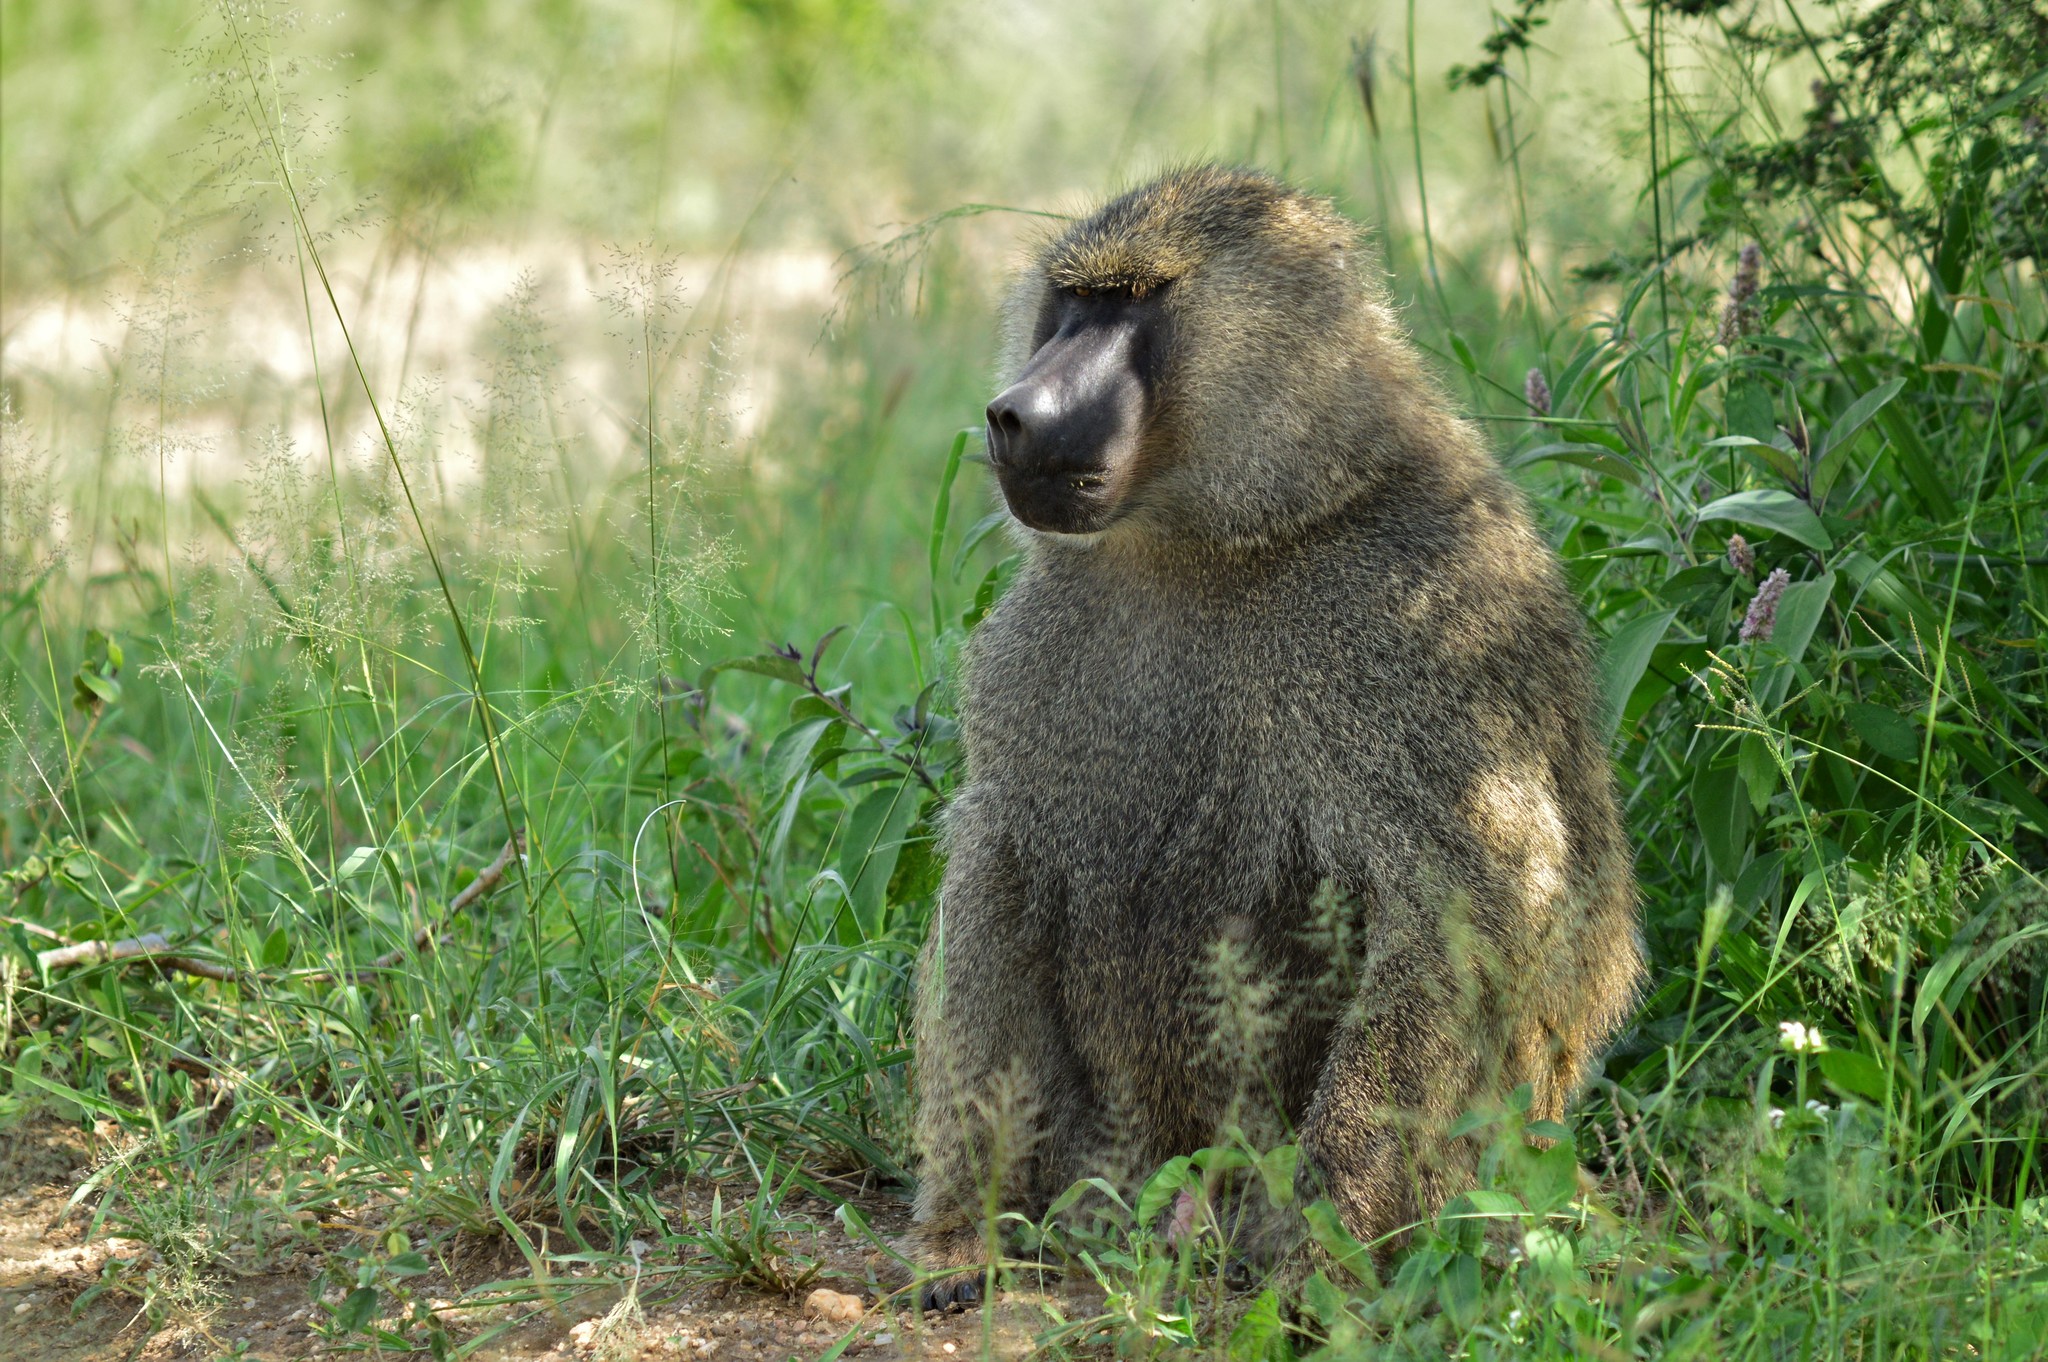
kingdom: Animalia
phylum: Chordata
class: Mammalia
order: Primates
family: Cercopithecidae
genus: Papio
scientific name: Papio anubis
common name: Olive baboon
